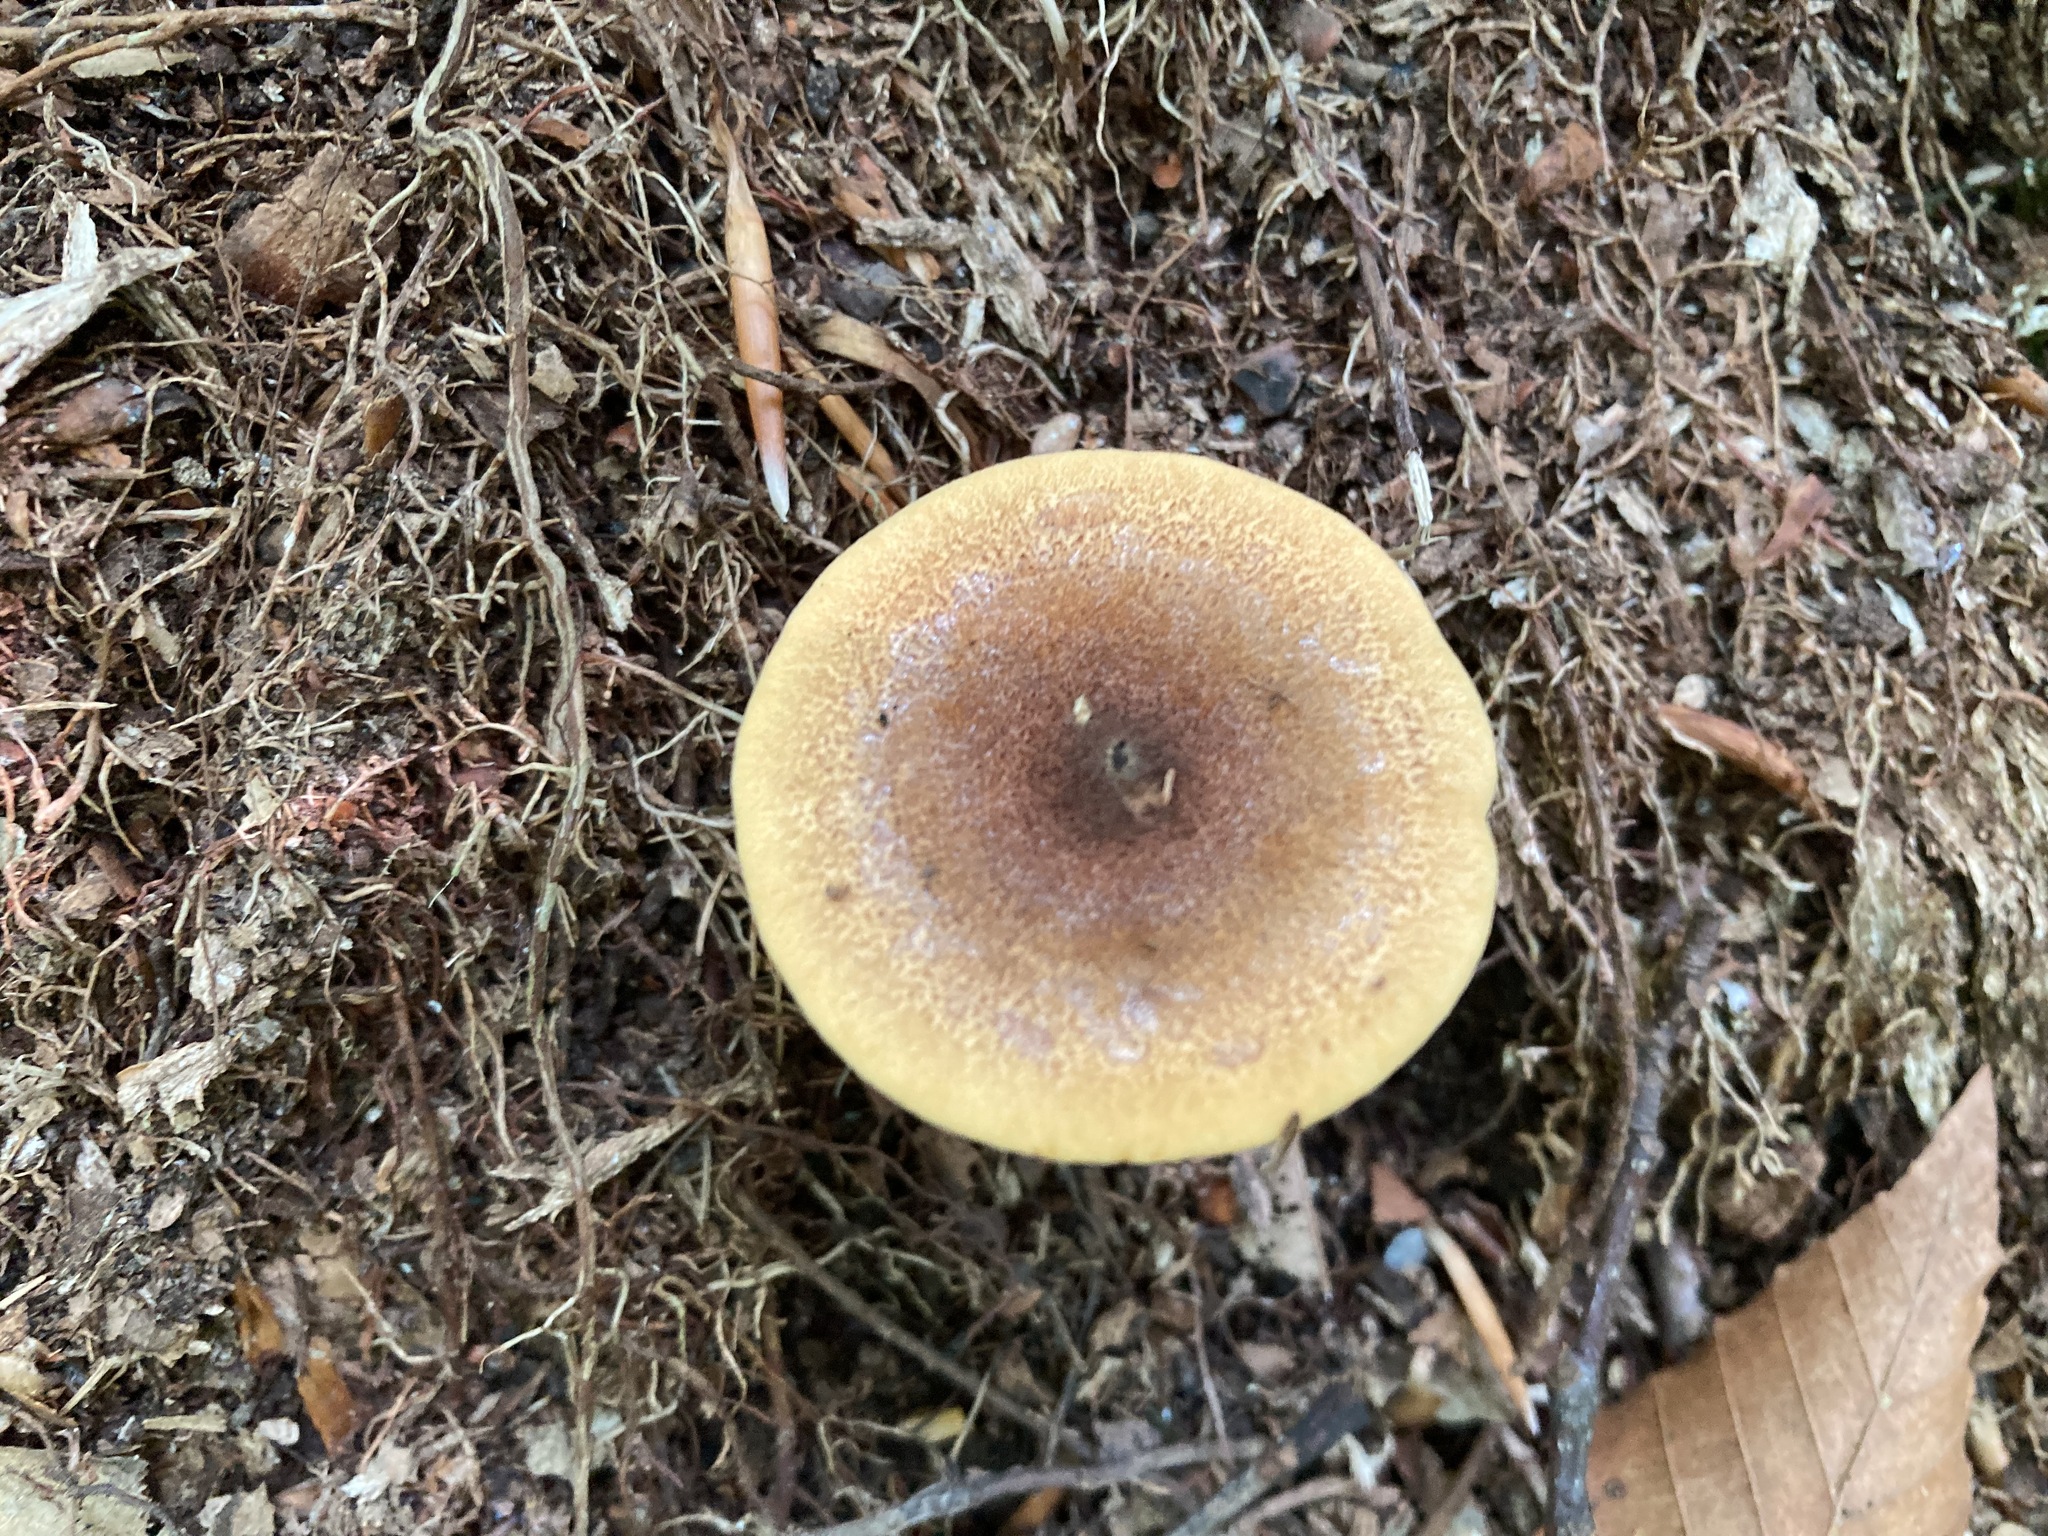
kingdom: Fungi
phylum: Basidiomycota
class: Agaricomycetes
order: Boletales
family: Hygrophoropsidaceae
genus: Hygrophoropsis
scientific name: Hygrophoropsis aurantiaca
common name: False chanterelle
